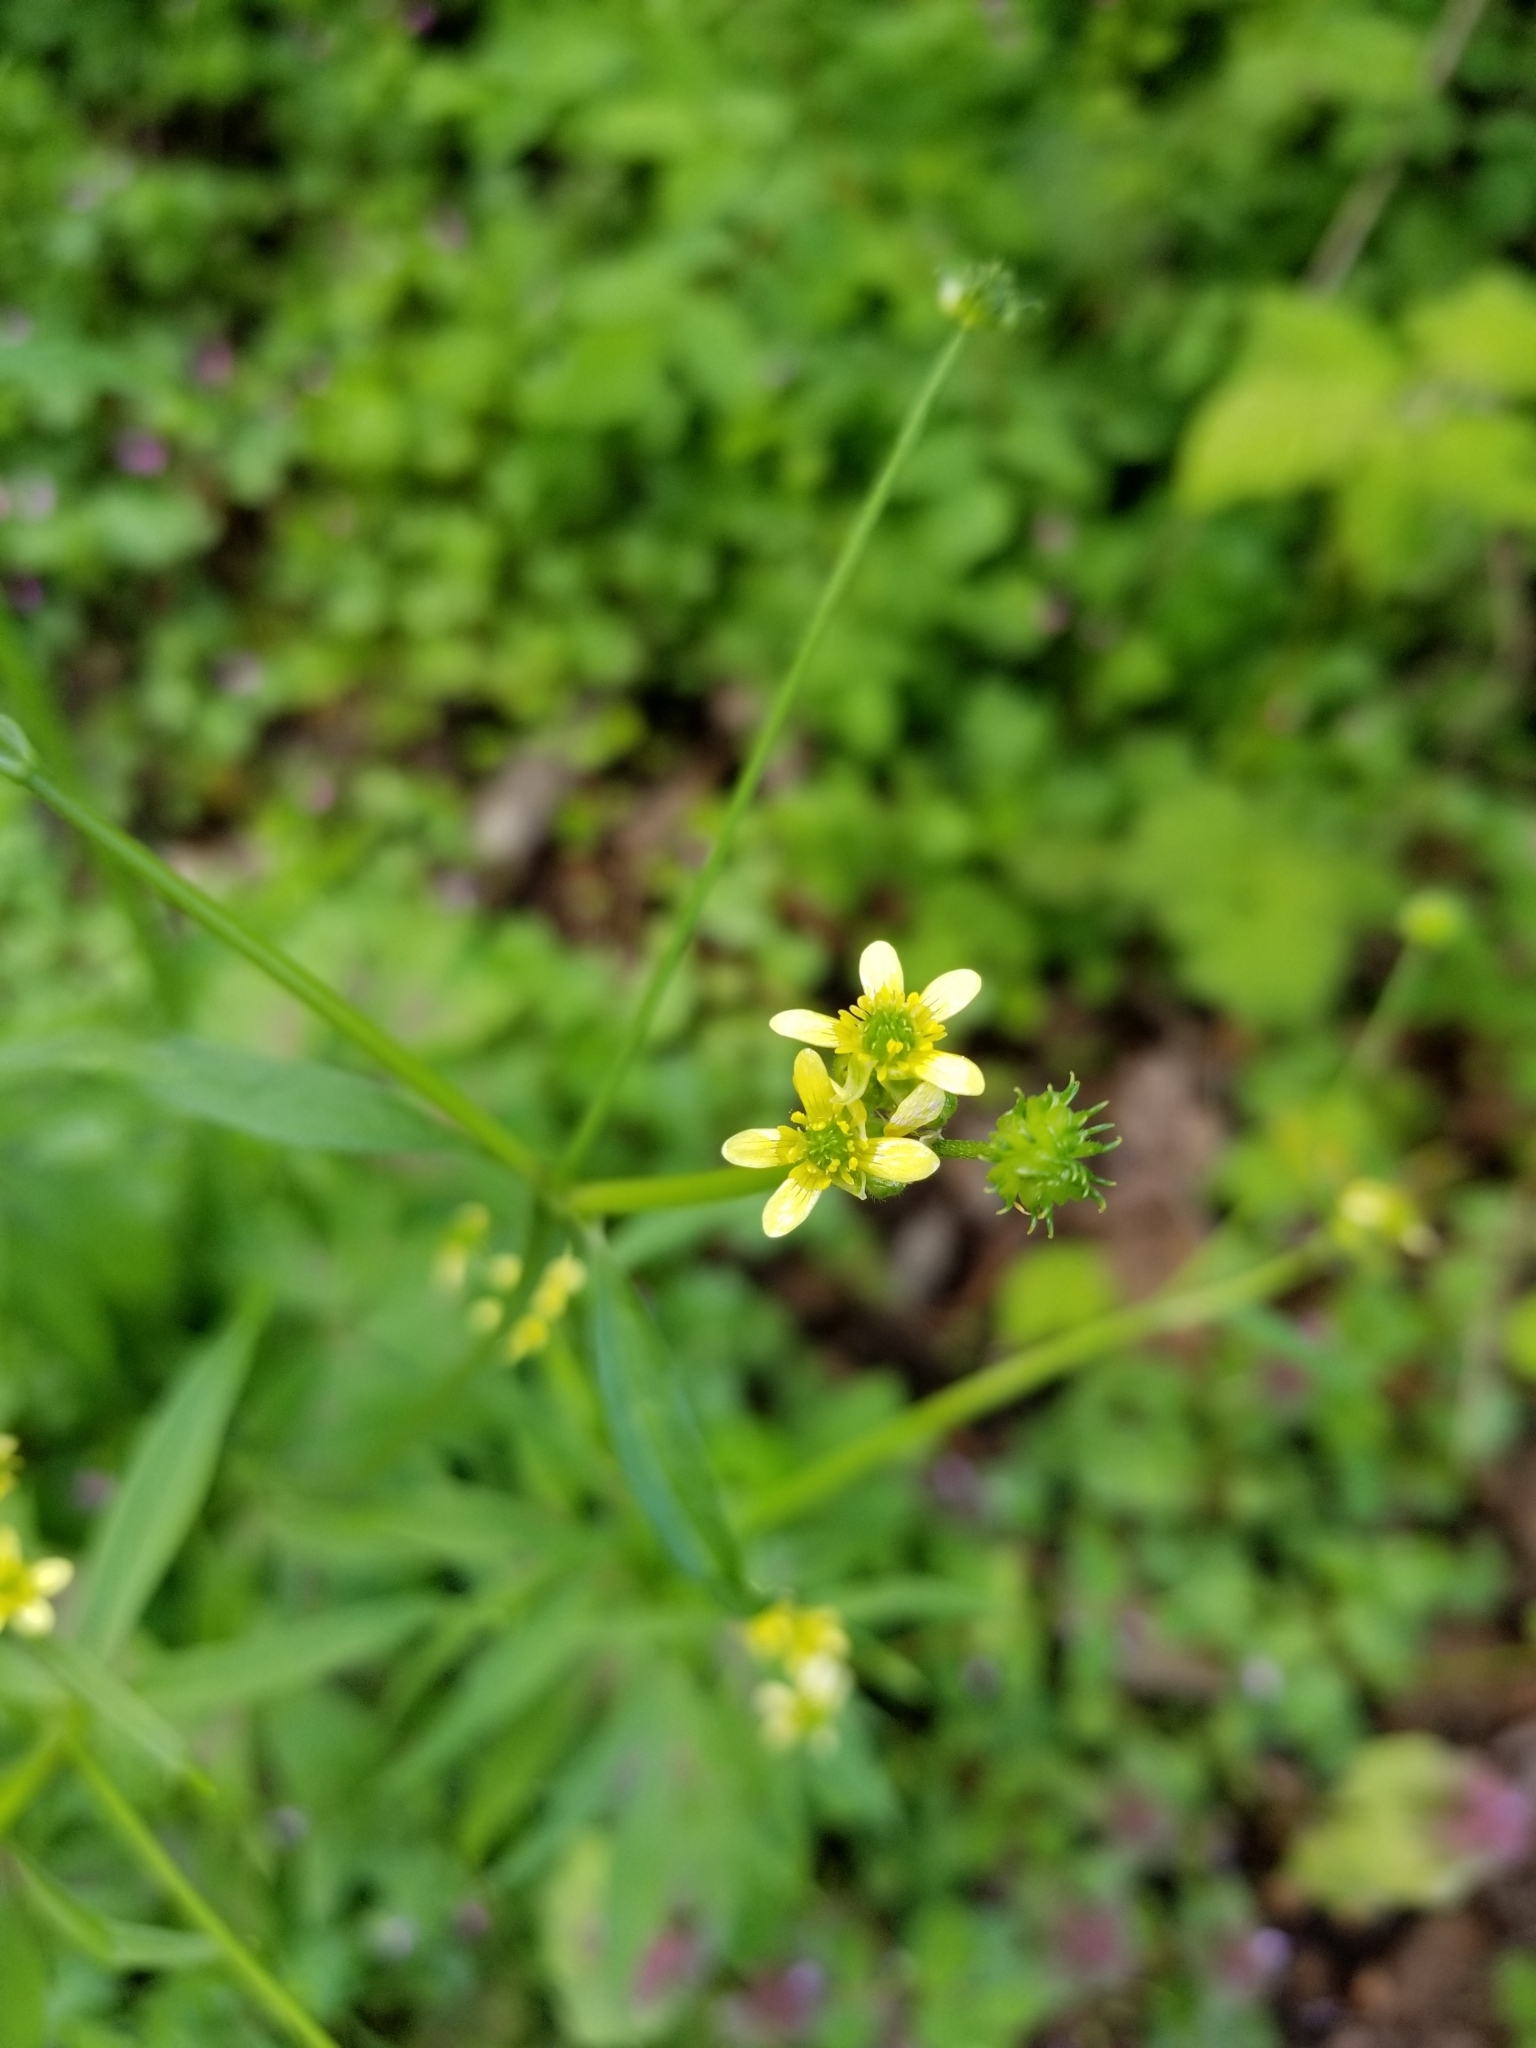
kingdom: Plantae
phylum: Tracheophyta
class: Magnoliopsida
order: Ranunculales
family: Ranunculaceae
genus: Ranunculus
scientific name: Ranunculus uncinatus
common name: Little buttercup
